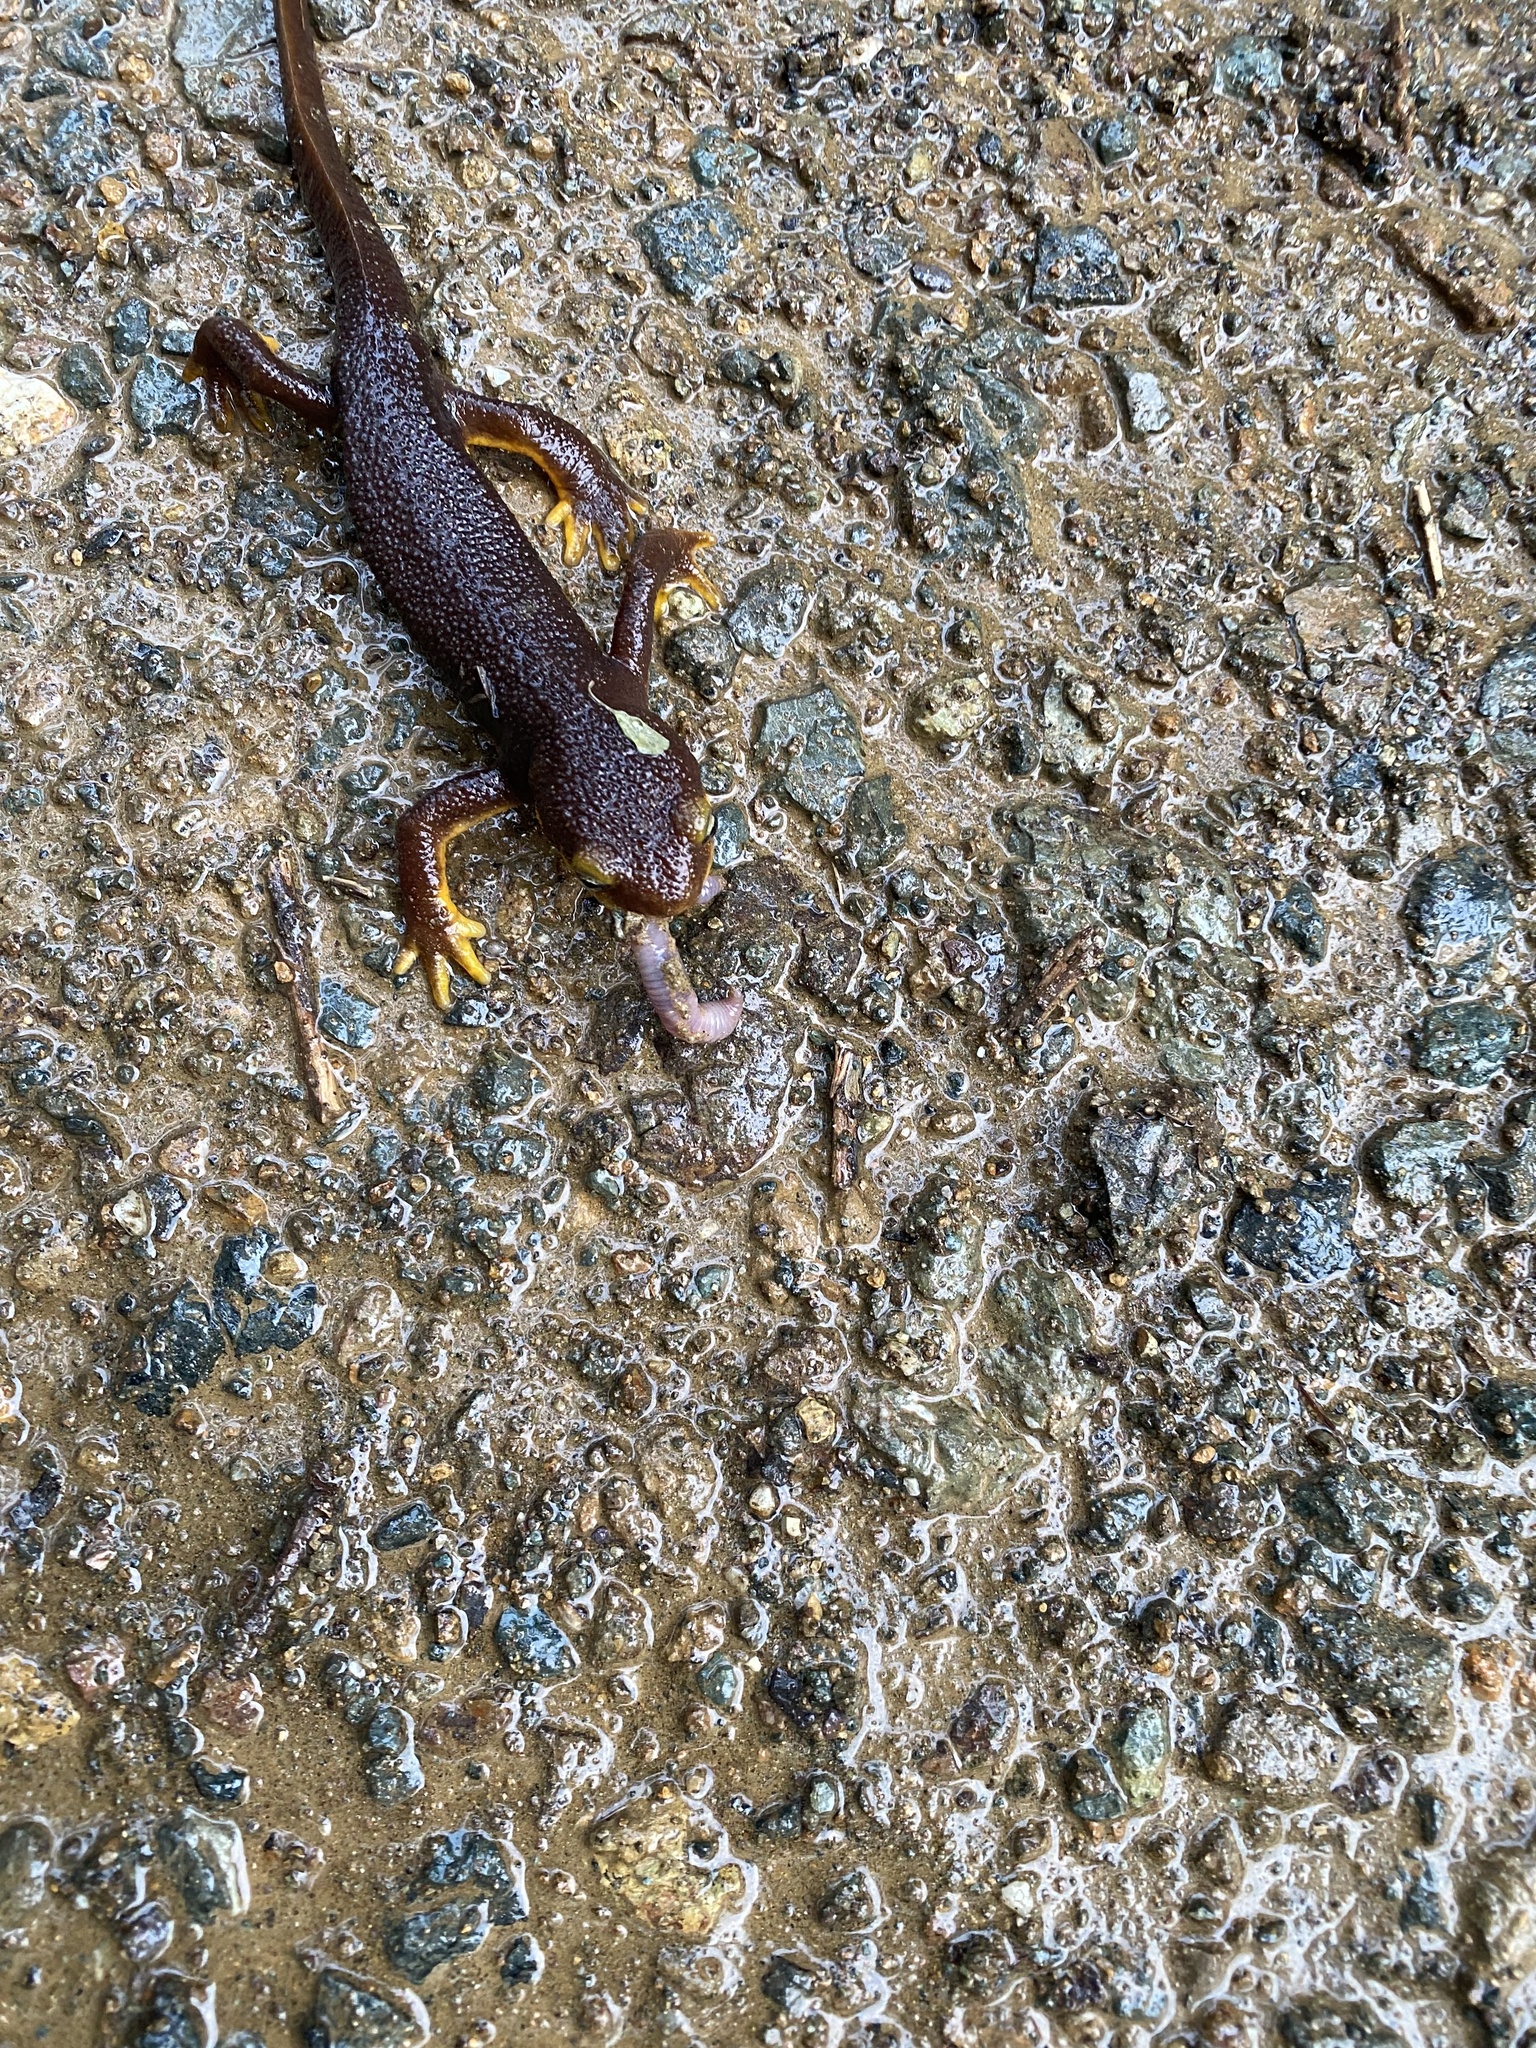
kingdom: Animalia
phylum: Chordata
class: Amphibia
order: Caudata
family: Salamandridae
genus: Taricha
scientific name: Taricha torosa
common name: California newt
